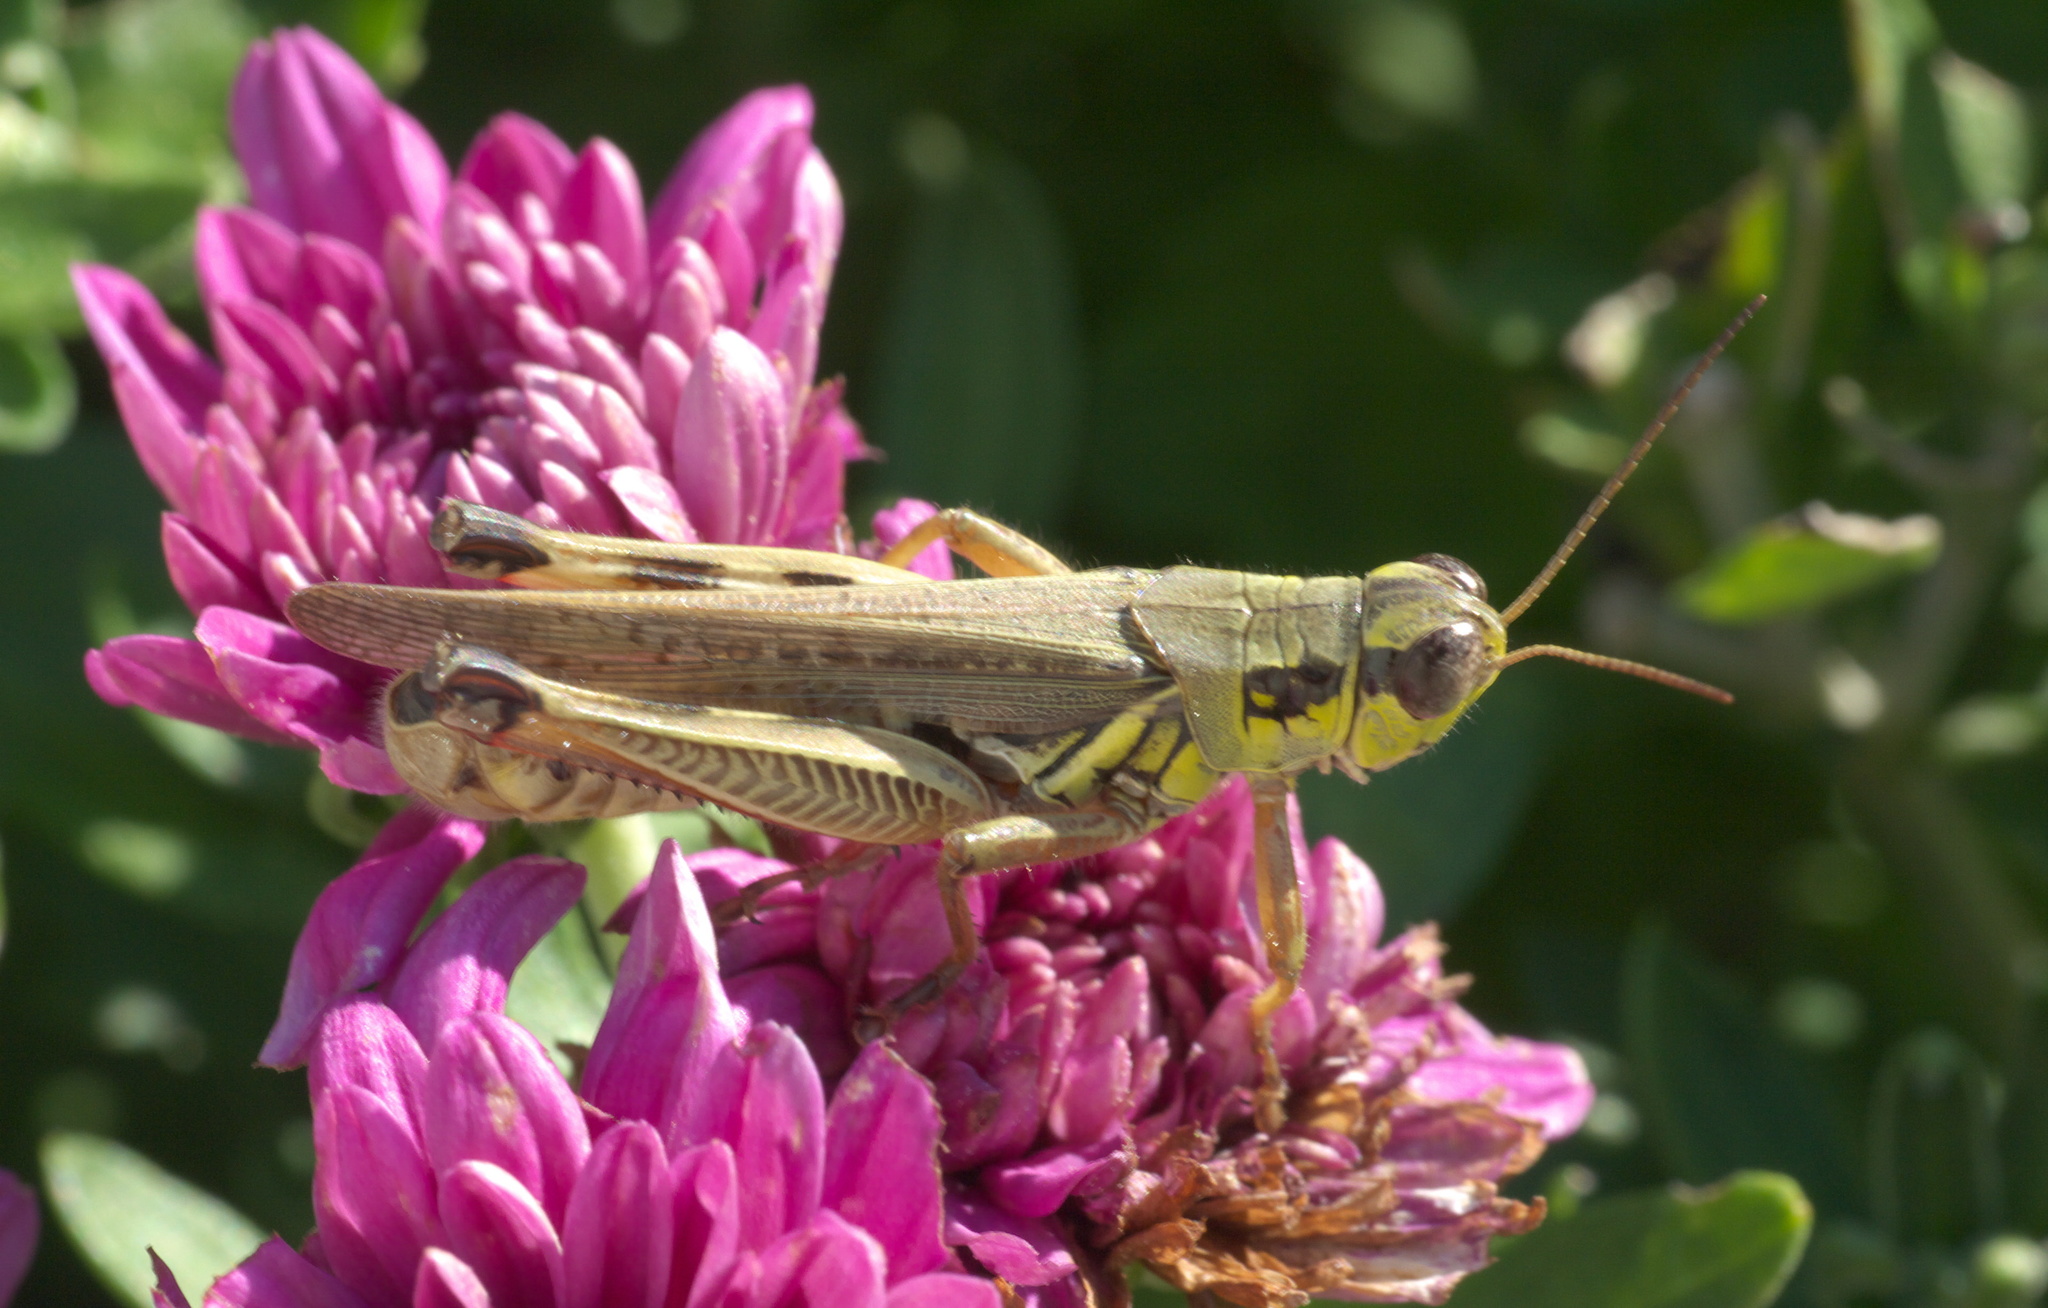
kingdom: Animalia
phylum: Arthropoda
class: Insecta
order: Orthoptera
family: Acrididae
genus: Melanoplus
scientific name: Melanoplus femurrubrum
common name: Red-legged grasshopper
